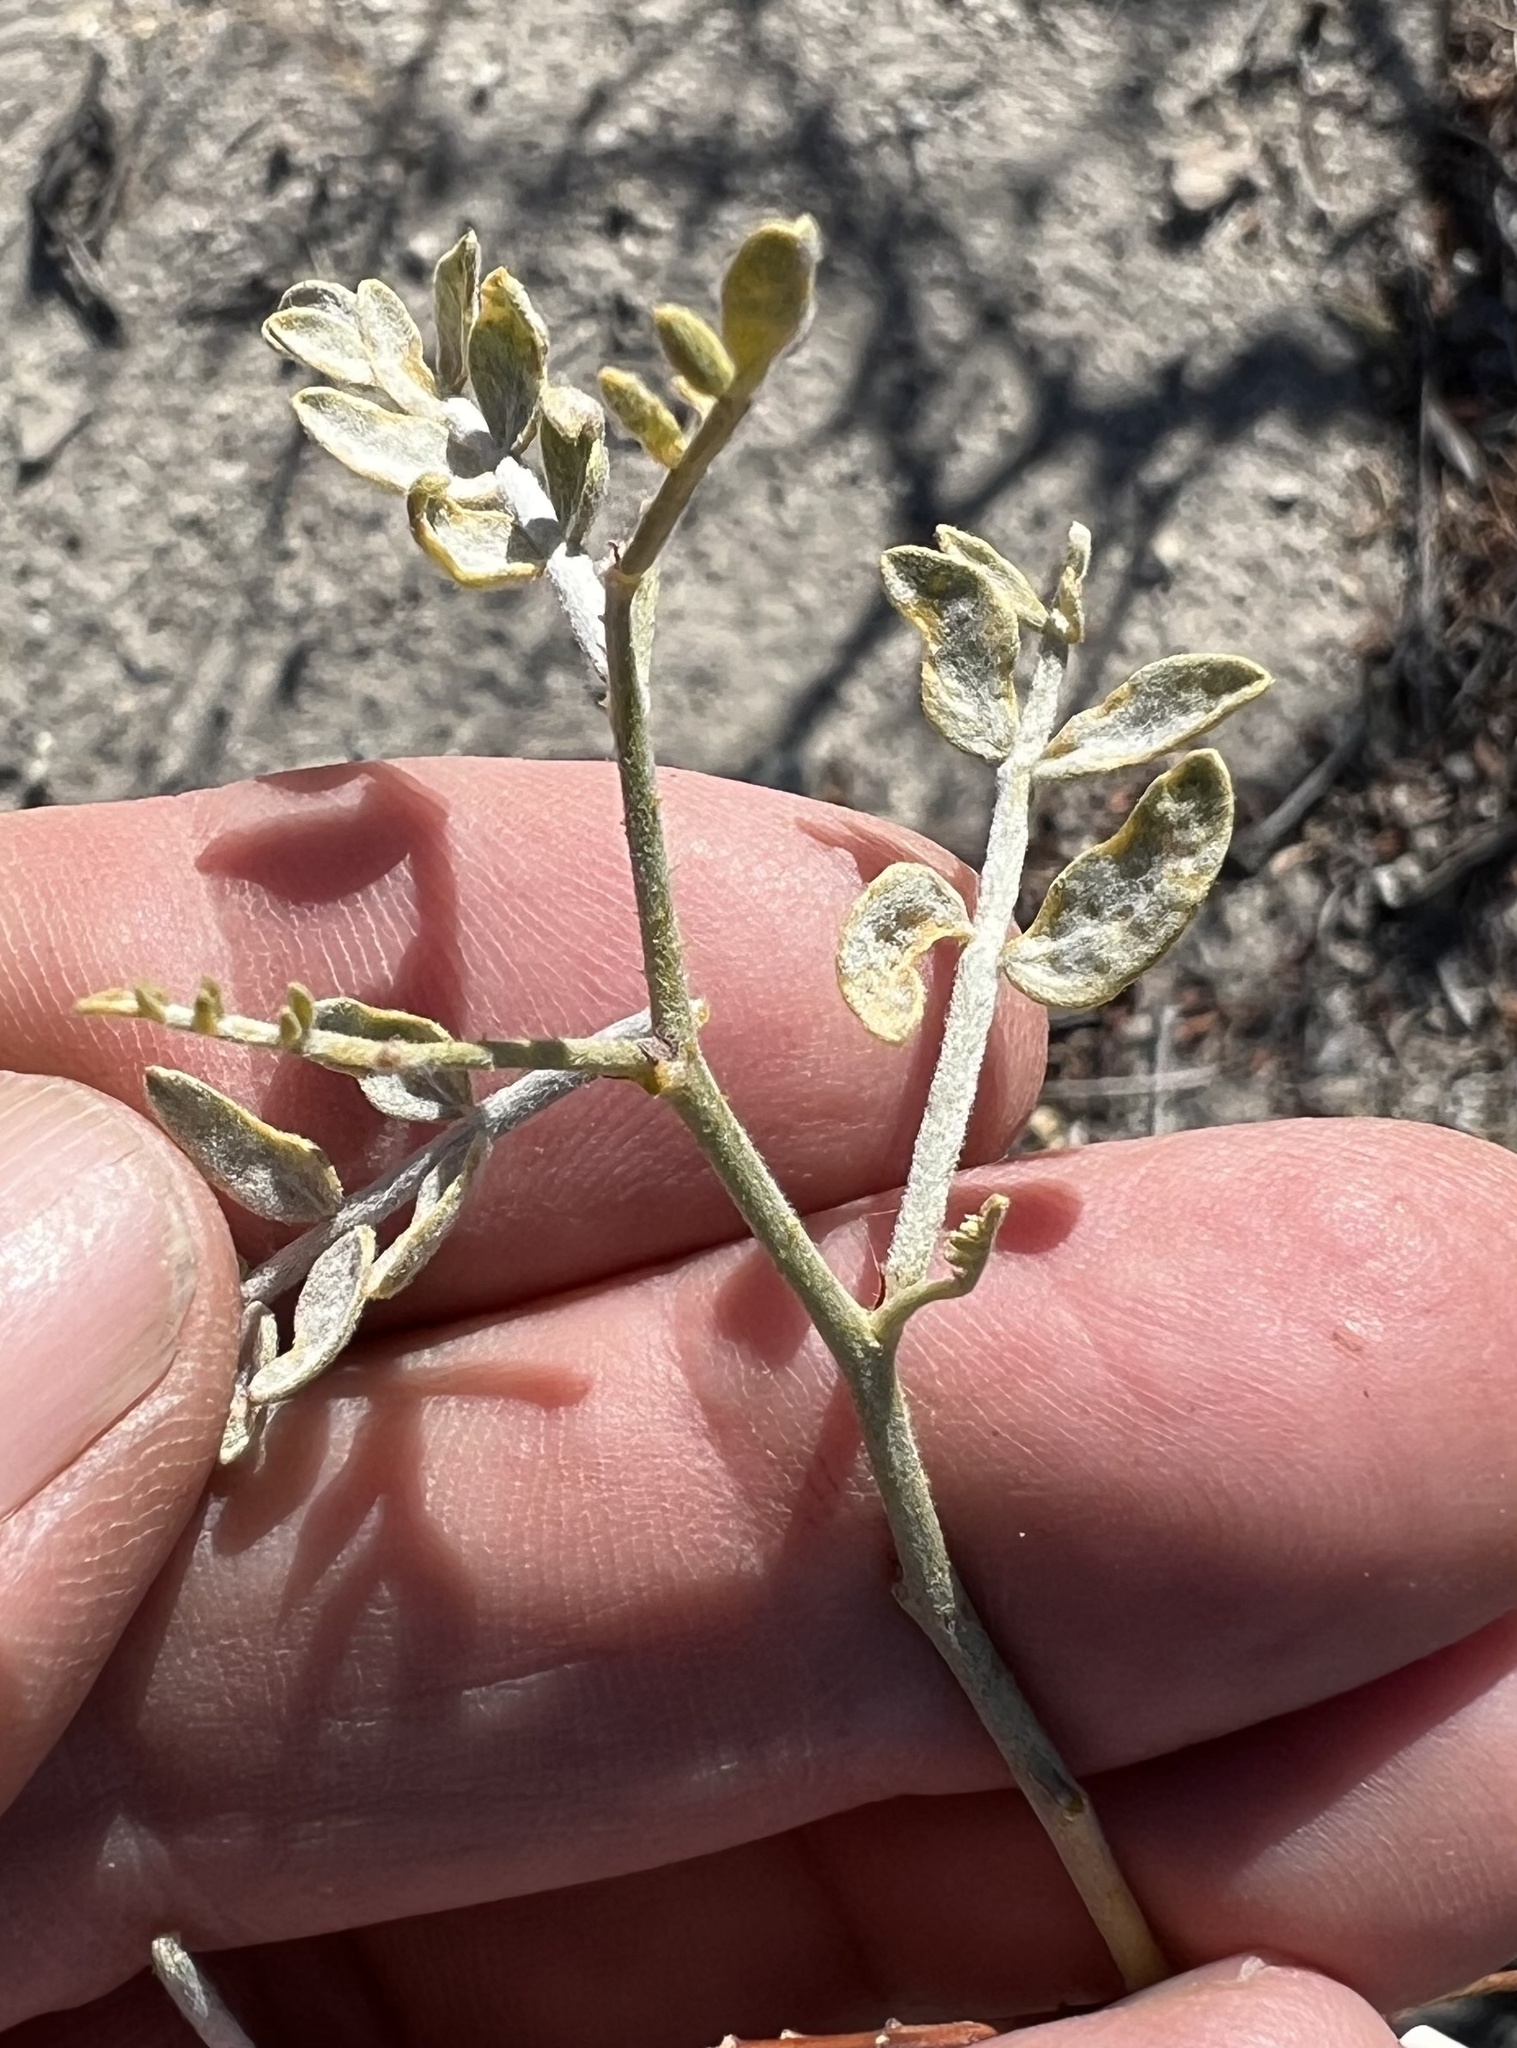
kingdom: Plantae
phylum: Tracheophyta
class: Magnoliopsida
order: Fabales
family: Fabaceae
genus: Psorothamnus
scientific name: Psorothamnus arborescens
